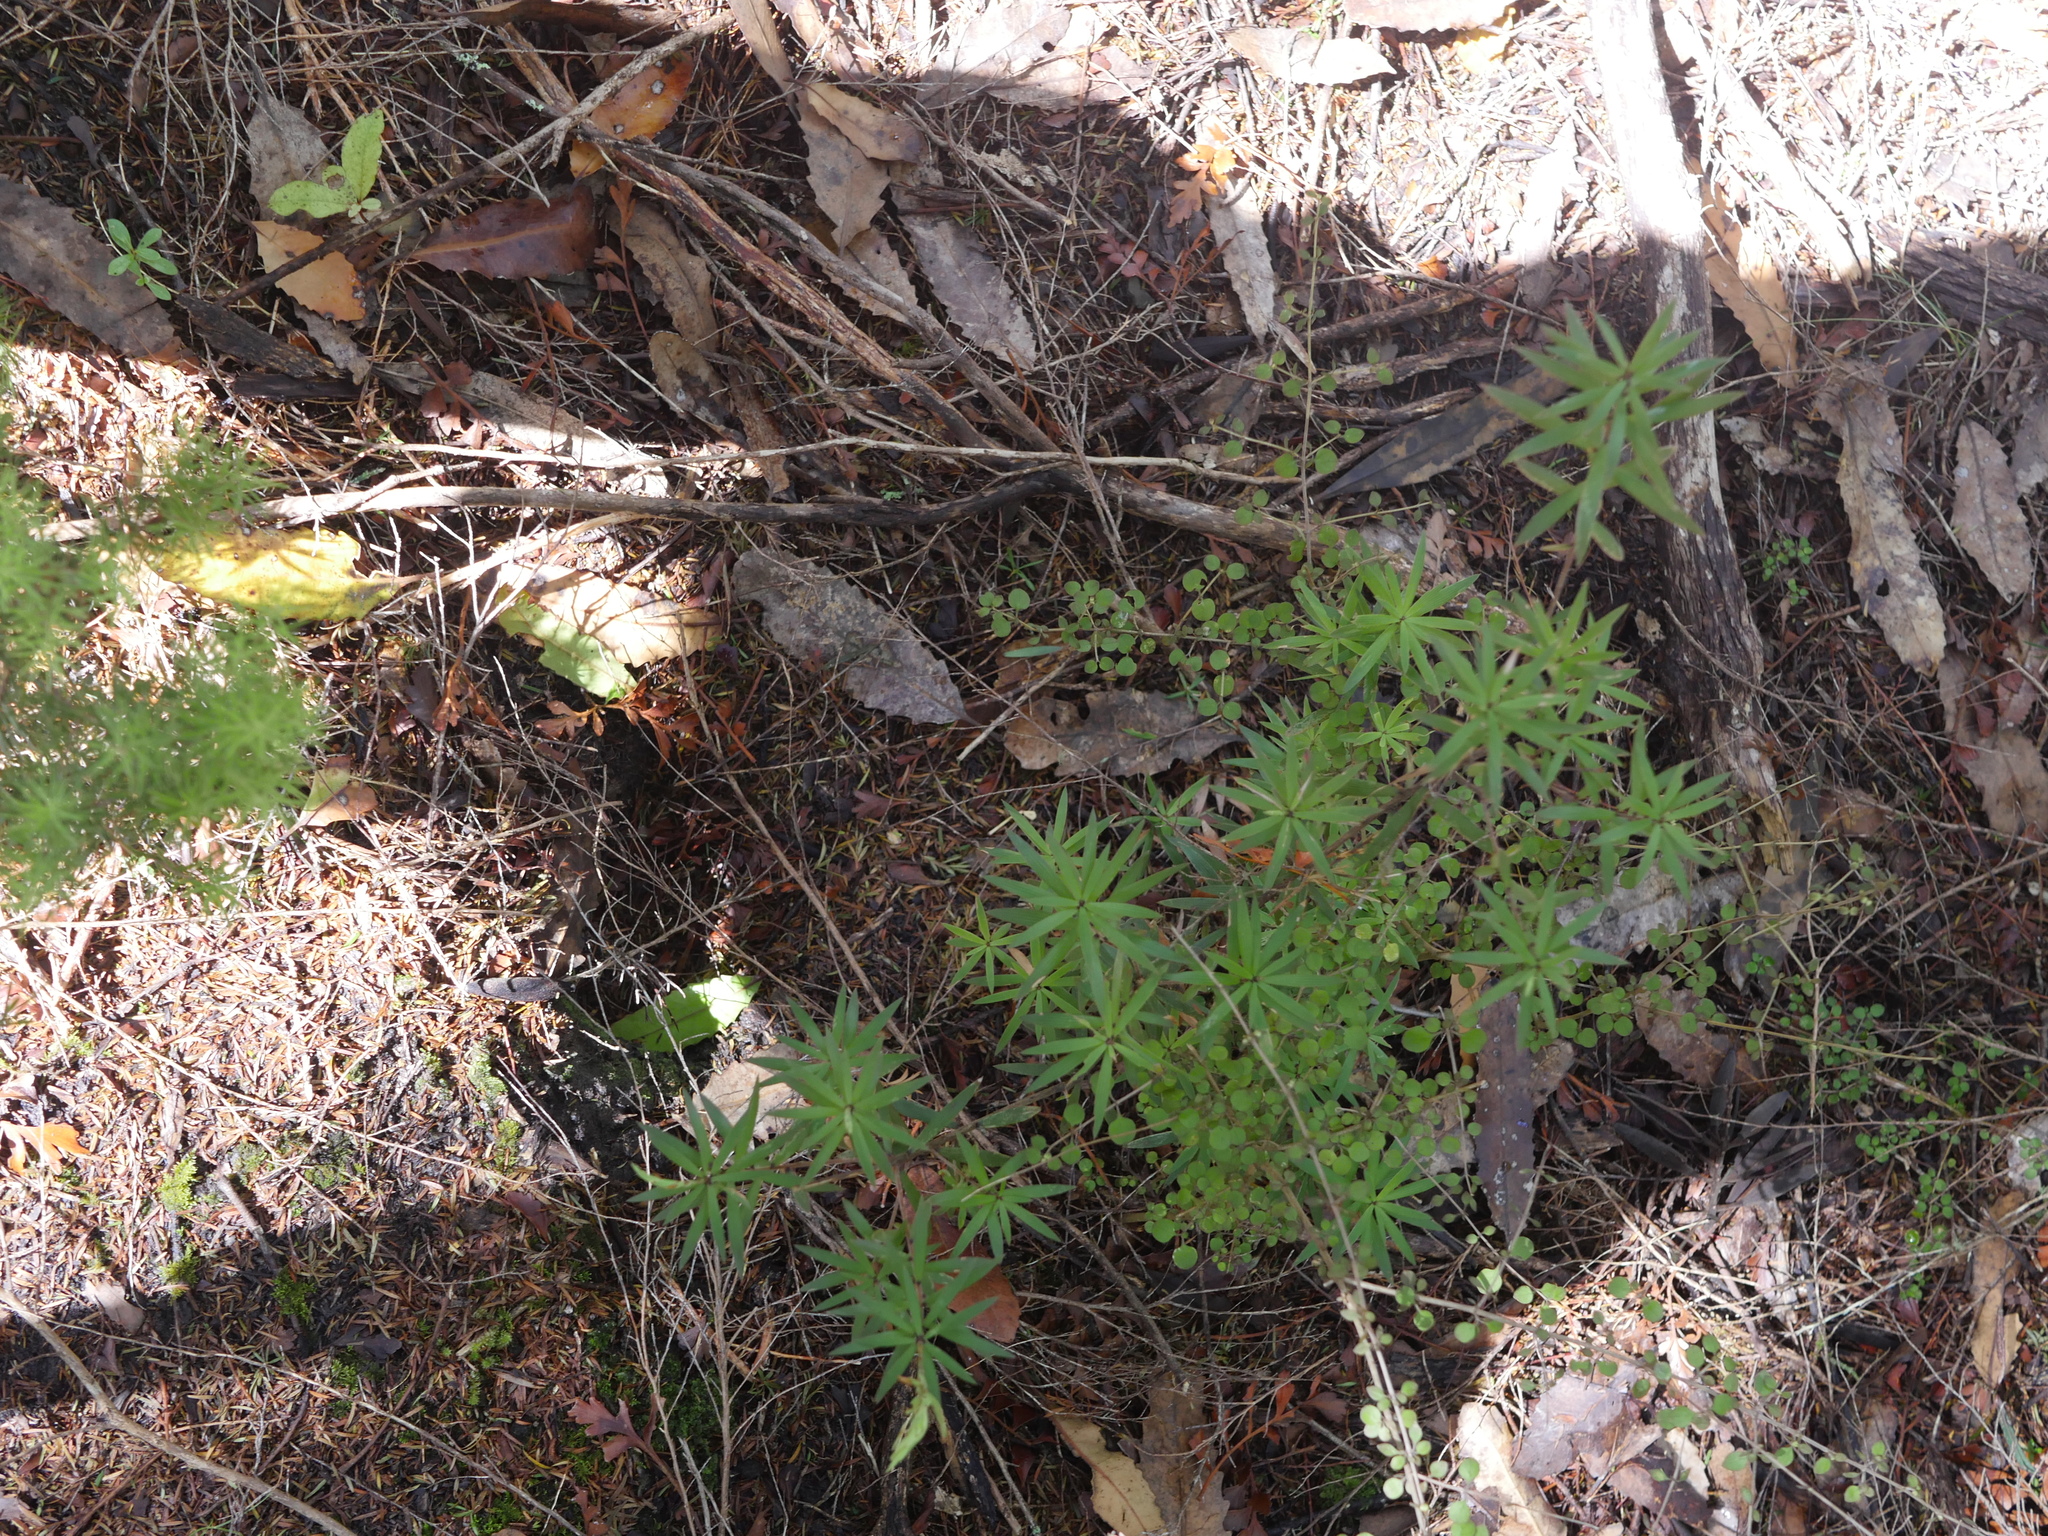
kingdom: Plantae
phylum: Tracheophyta
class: Magnoliopsida
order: Ericales
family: Ericaceae
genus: Leucopogon
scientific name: Leucopogon fasciculatus
